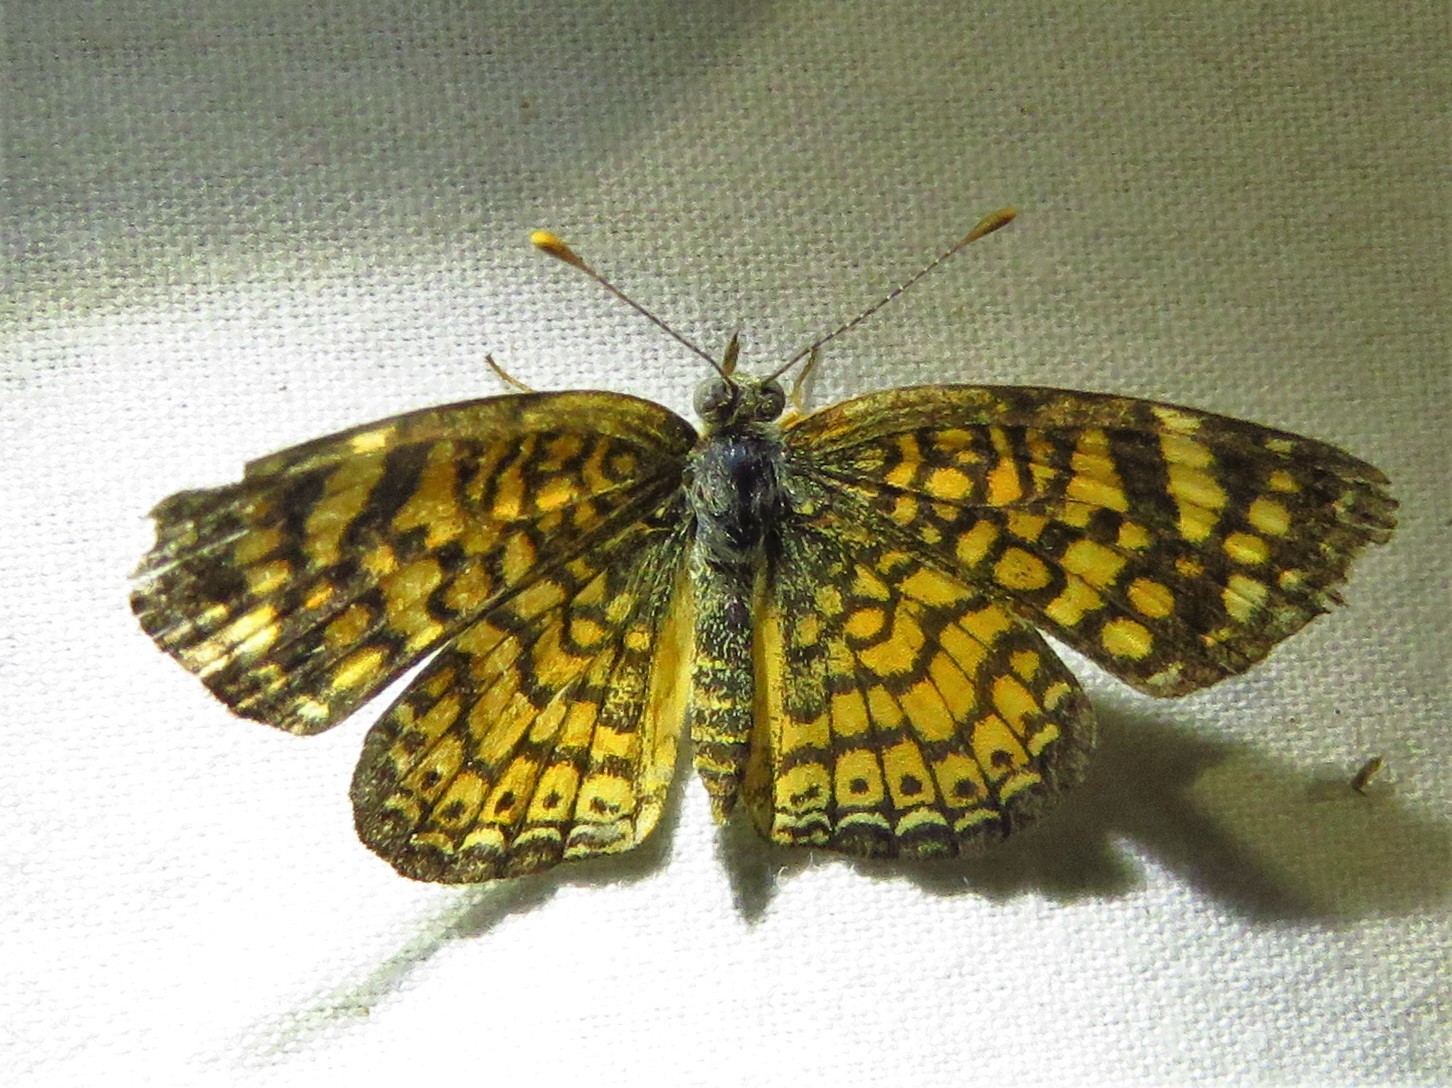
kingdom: Animalia
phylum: Arthropoda
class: Insecta
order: Lepidoptera
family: Nymphalidae
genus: Phyciodes
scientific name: Phyciodes vesta
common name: Vesta crescent
